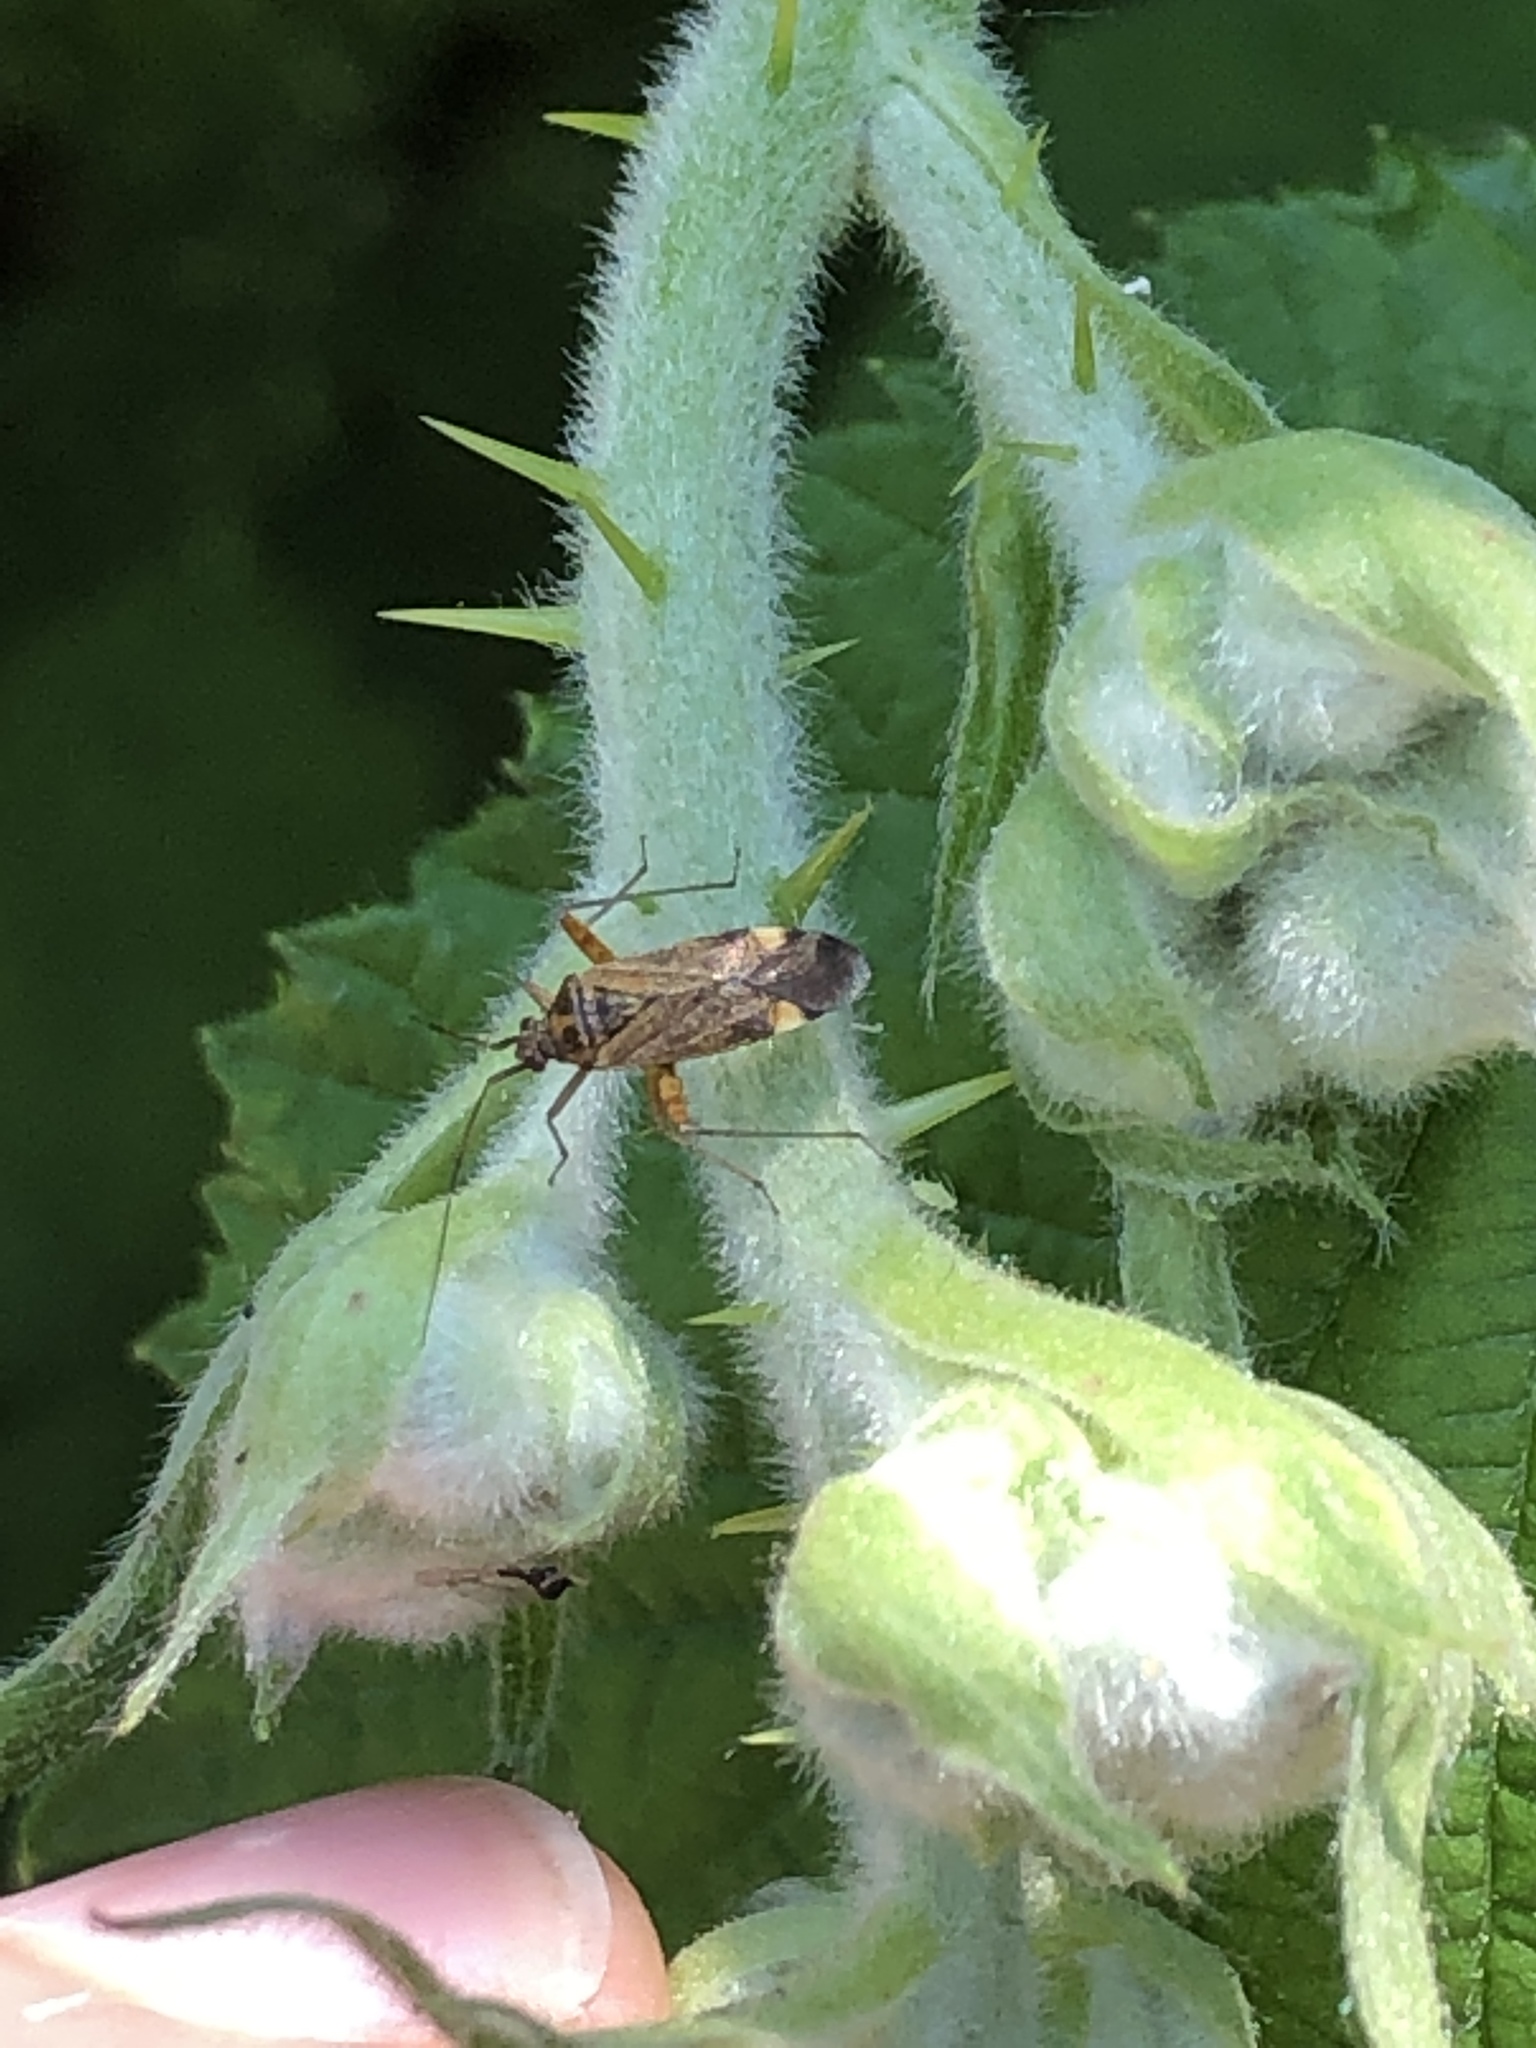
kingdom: Animalia
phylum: Arthropoda
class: Insecta
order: Hemiptera
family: Miridae
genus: Closterotomus
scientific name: Closterotomus fulvomaculatus
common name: Spotted plant bug
